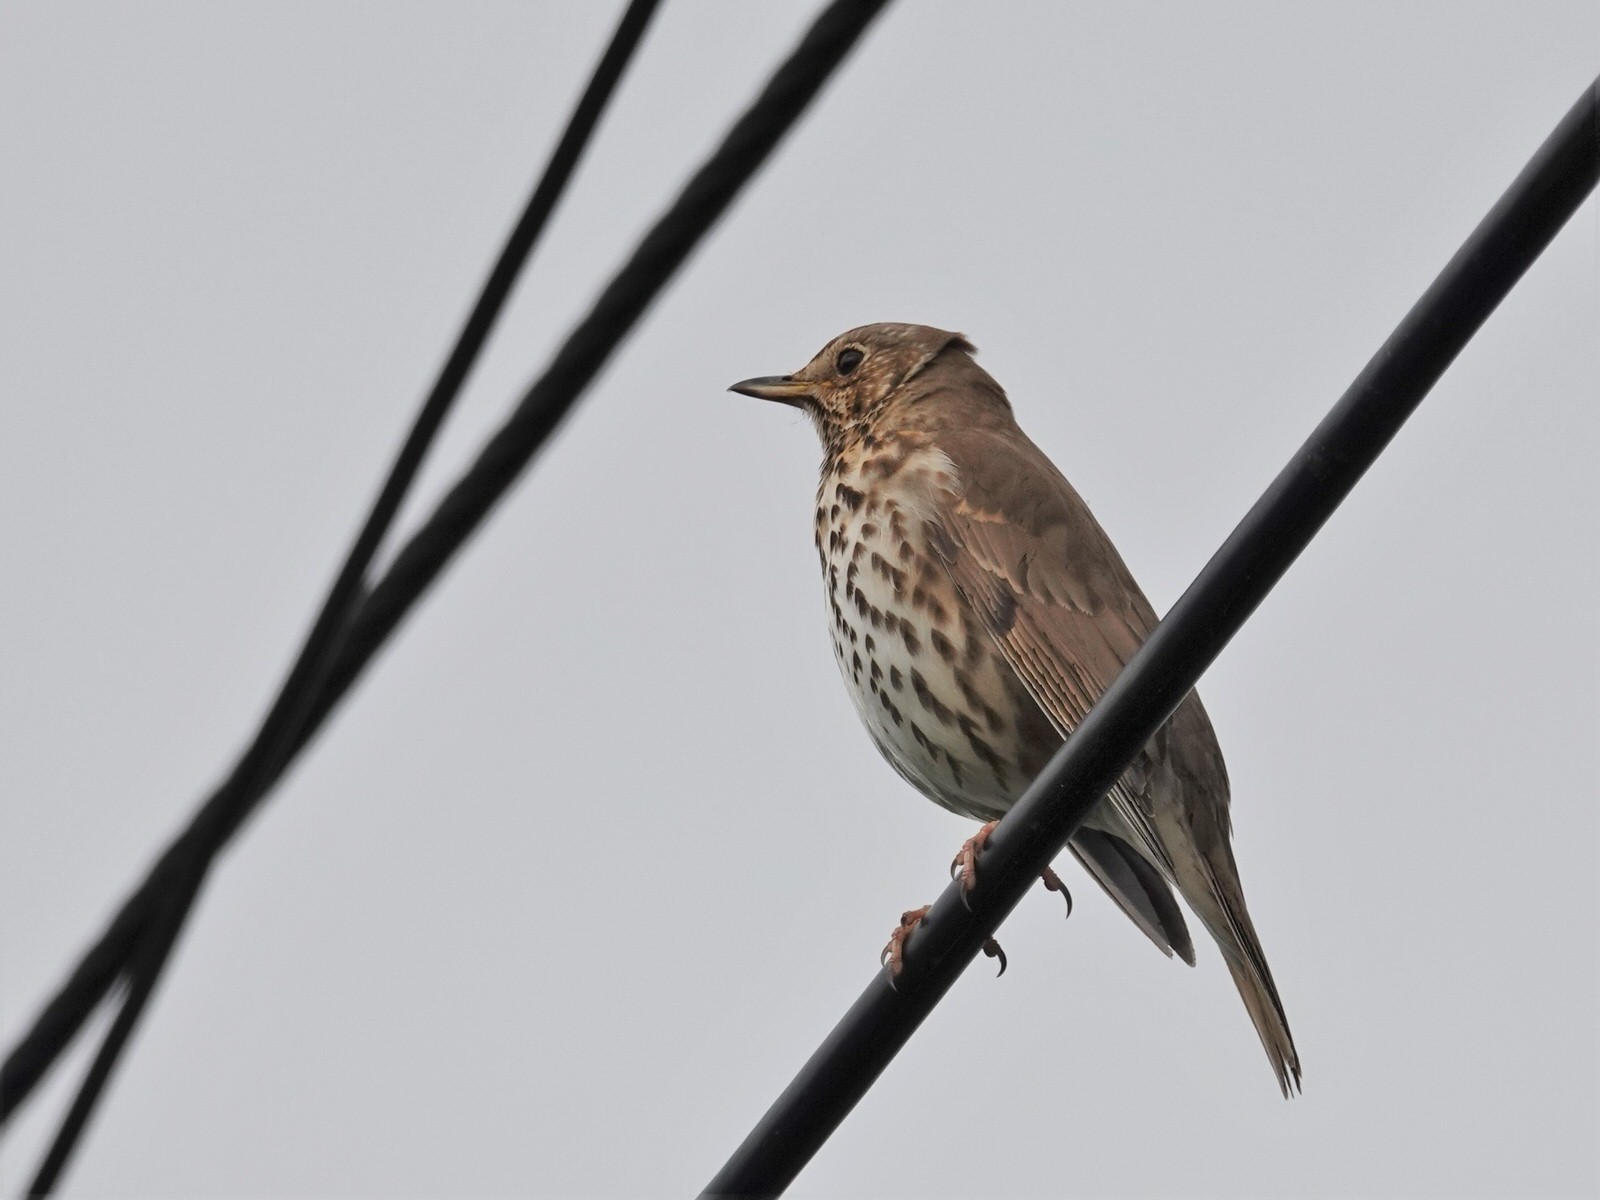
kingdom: Animalia
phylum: Chordata
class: Aves
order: Passeriformes
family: Turdidae
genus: Turdus
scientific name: Turdus philomelos
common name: Song thrush
